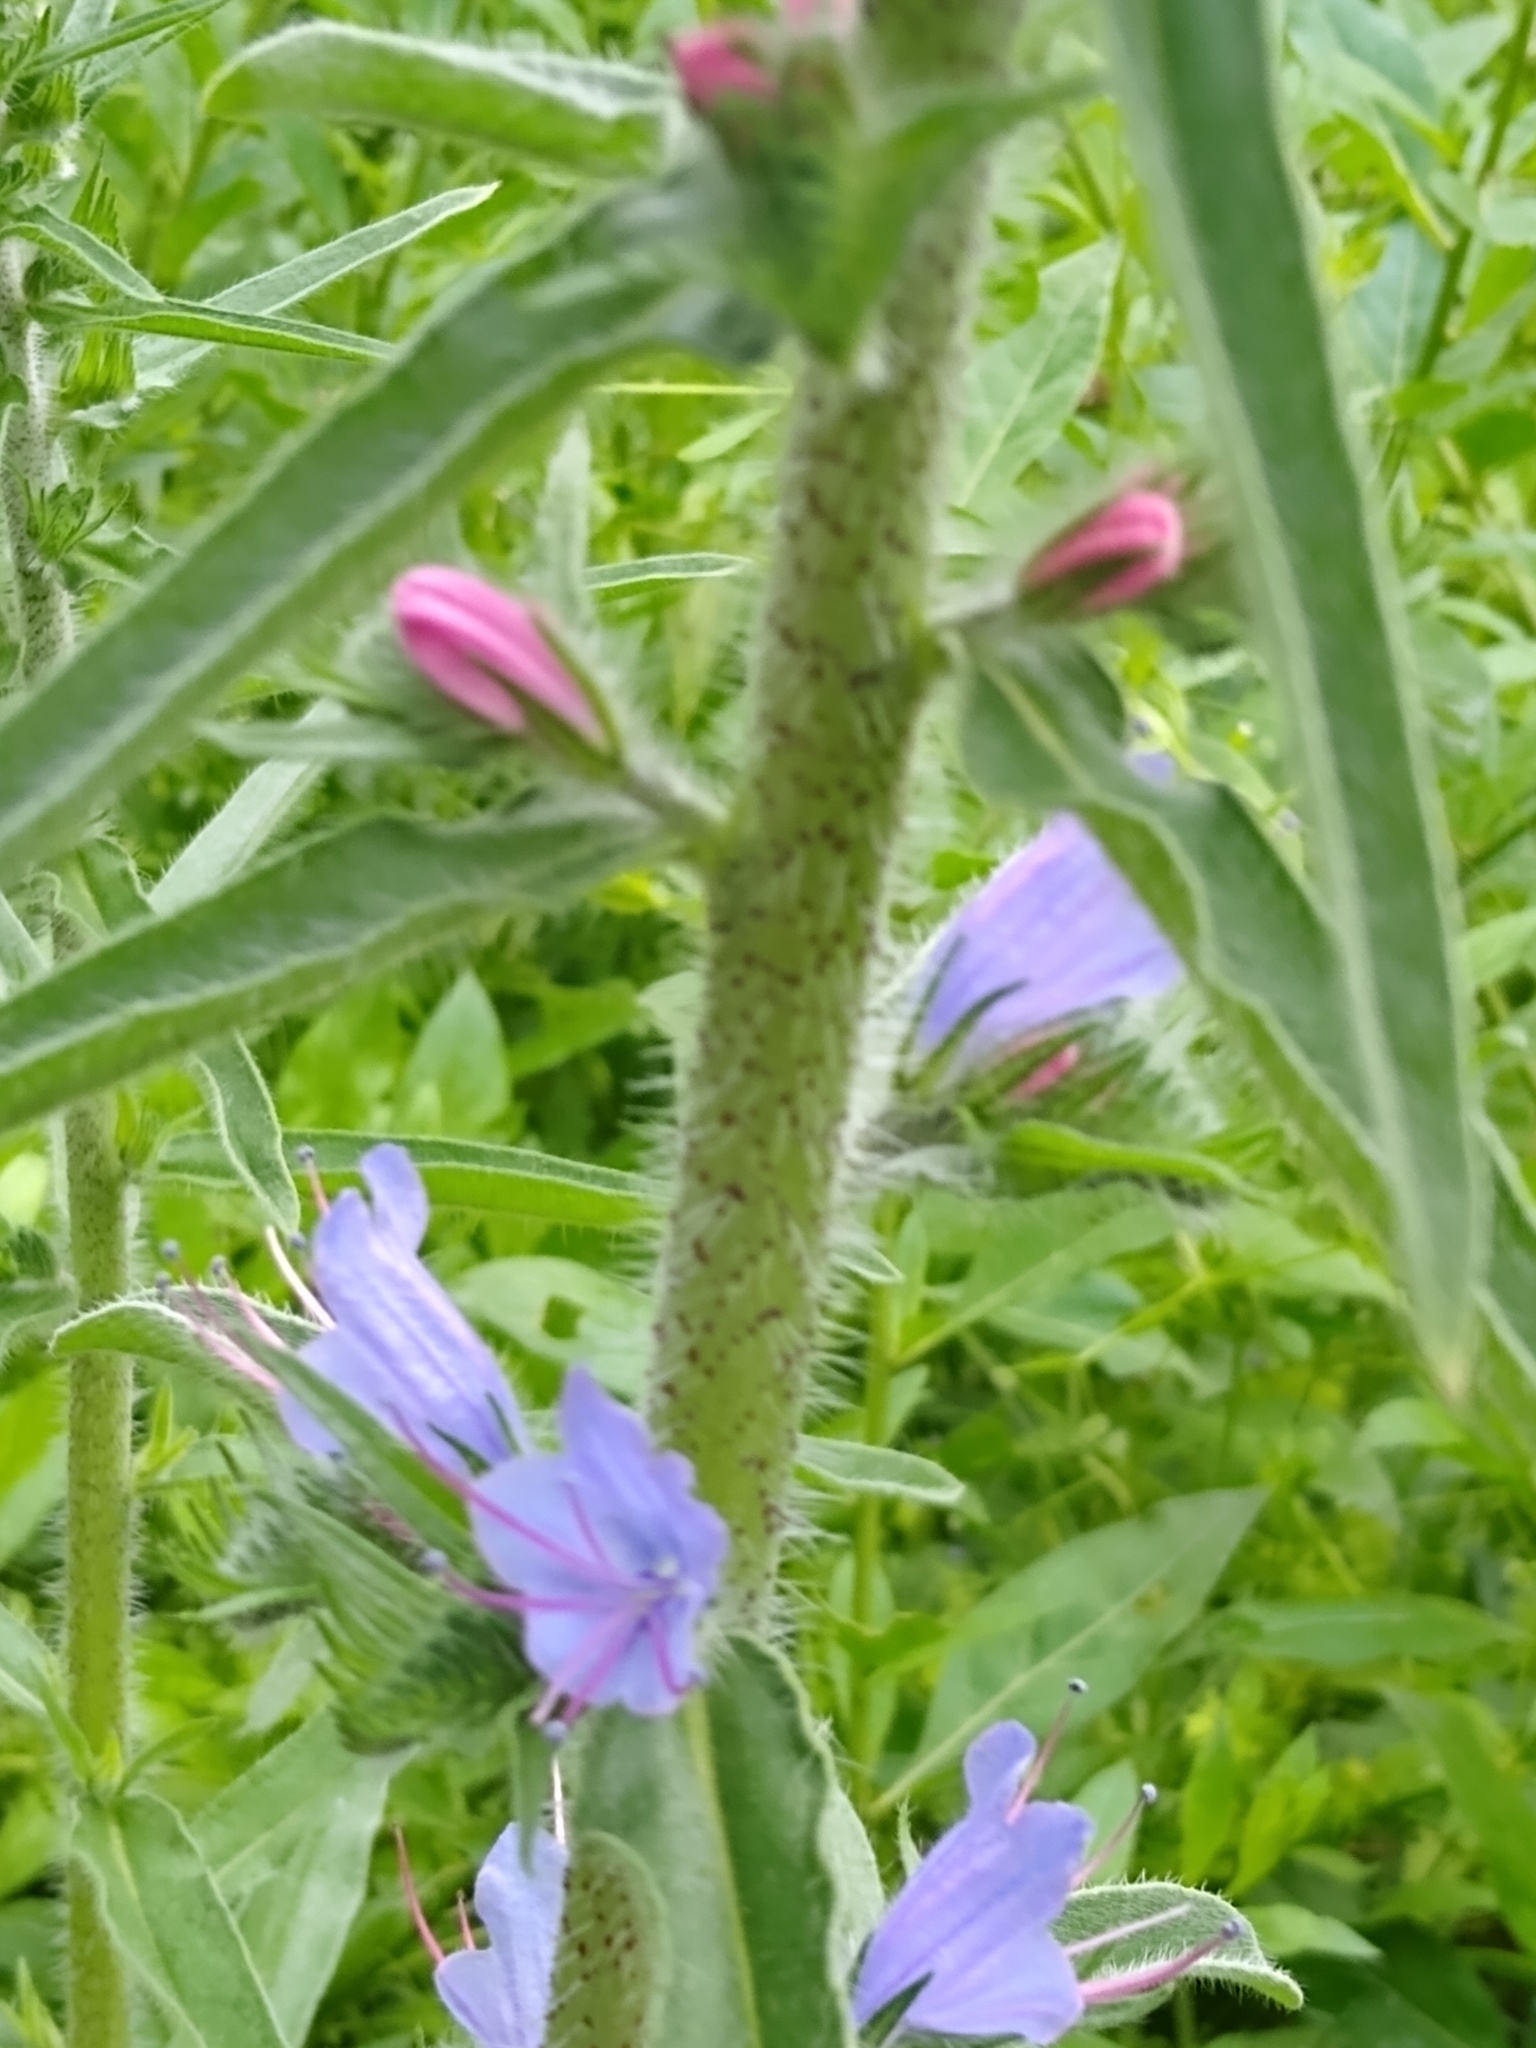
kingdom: Plantae
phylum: Tracheophyta
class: Magnoliopsida
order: Boraginales
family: Boraginaceae
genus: Echium
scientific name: Echium vulgare
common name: Common viper's bugloss
